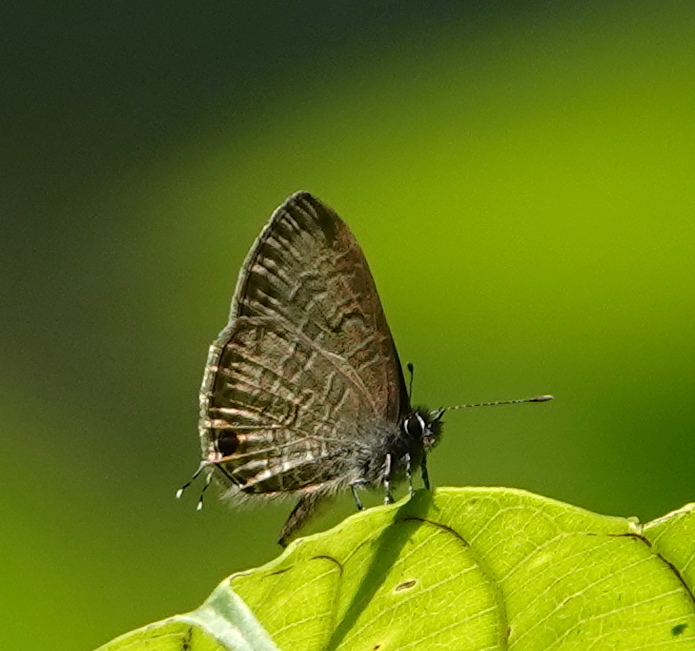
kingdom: Animalia
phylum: Arthropoda
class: Insecta
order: Lepidoptera
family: Lycaenidae
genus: Prosotas
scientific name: Prosotas nora
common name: Common line blue
